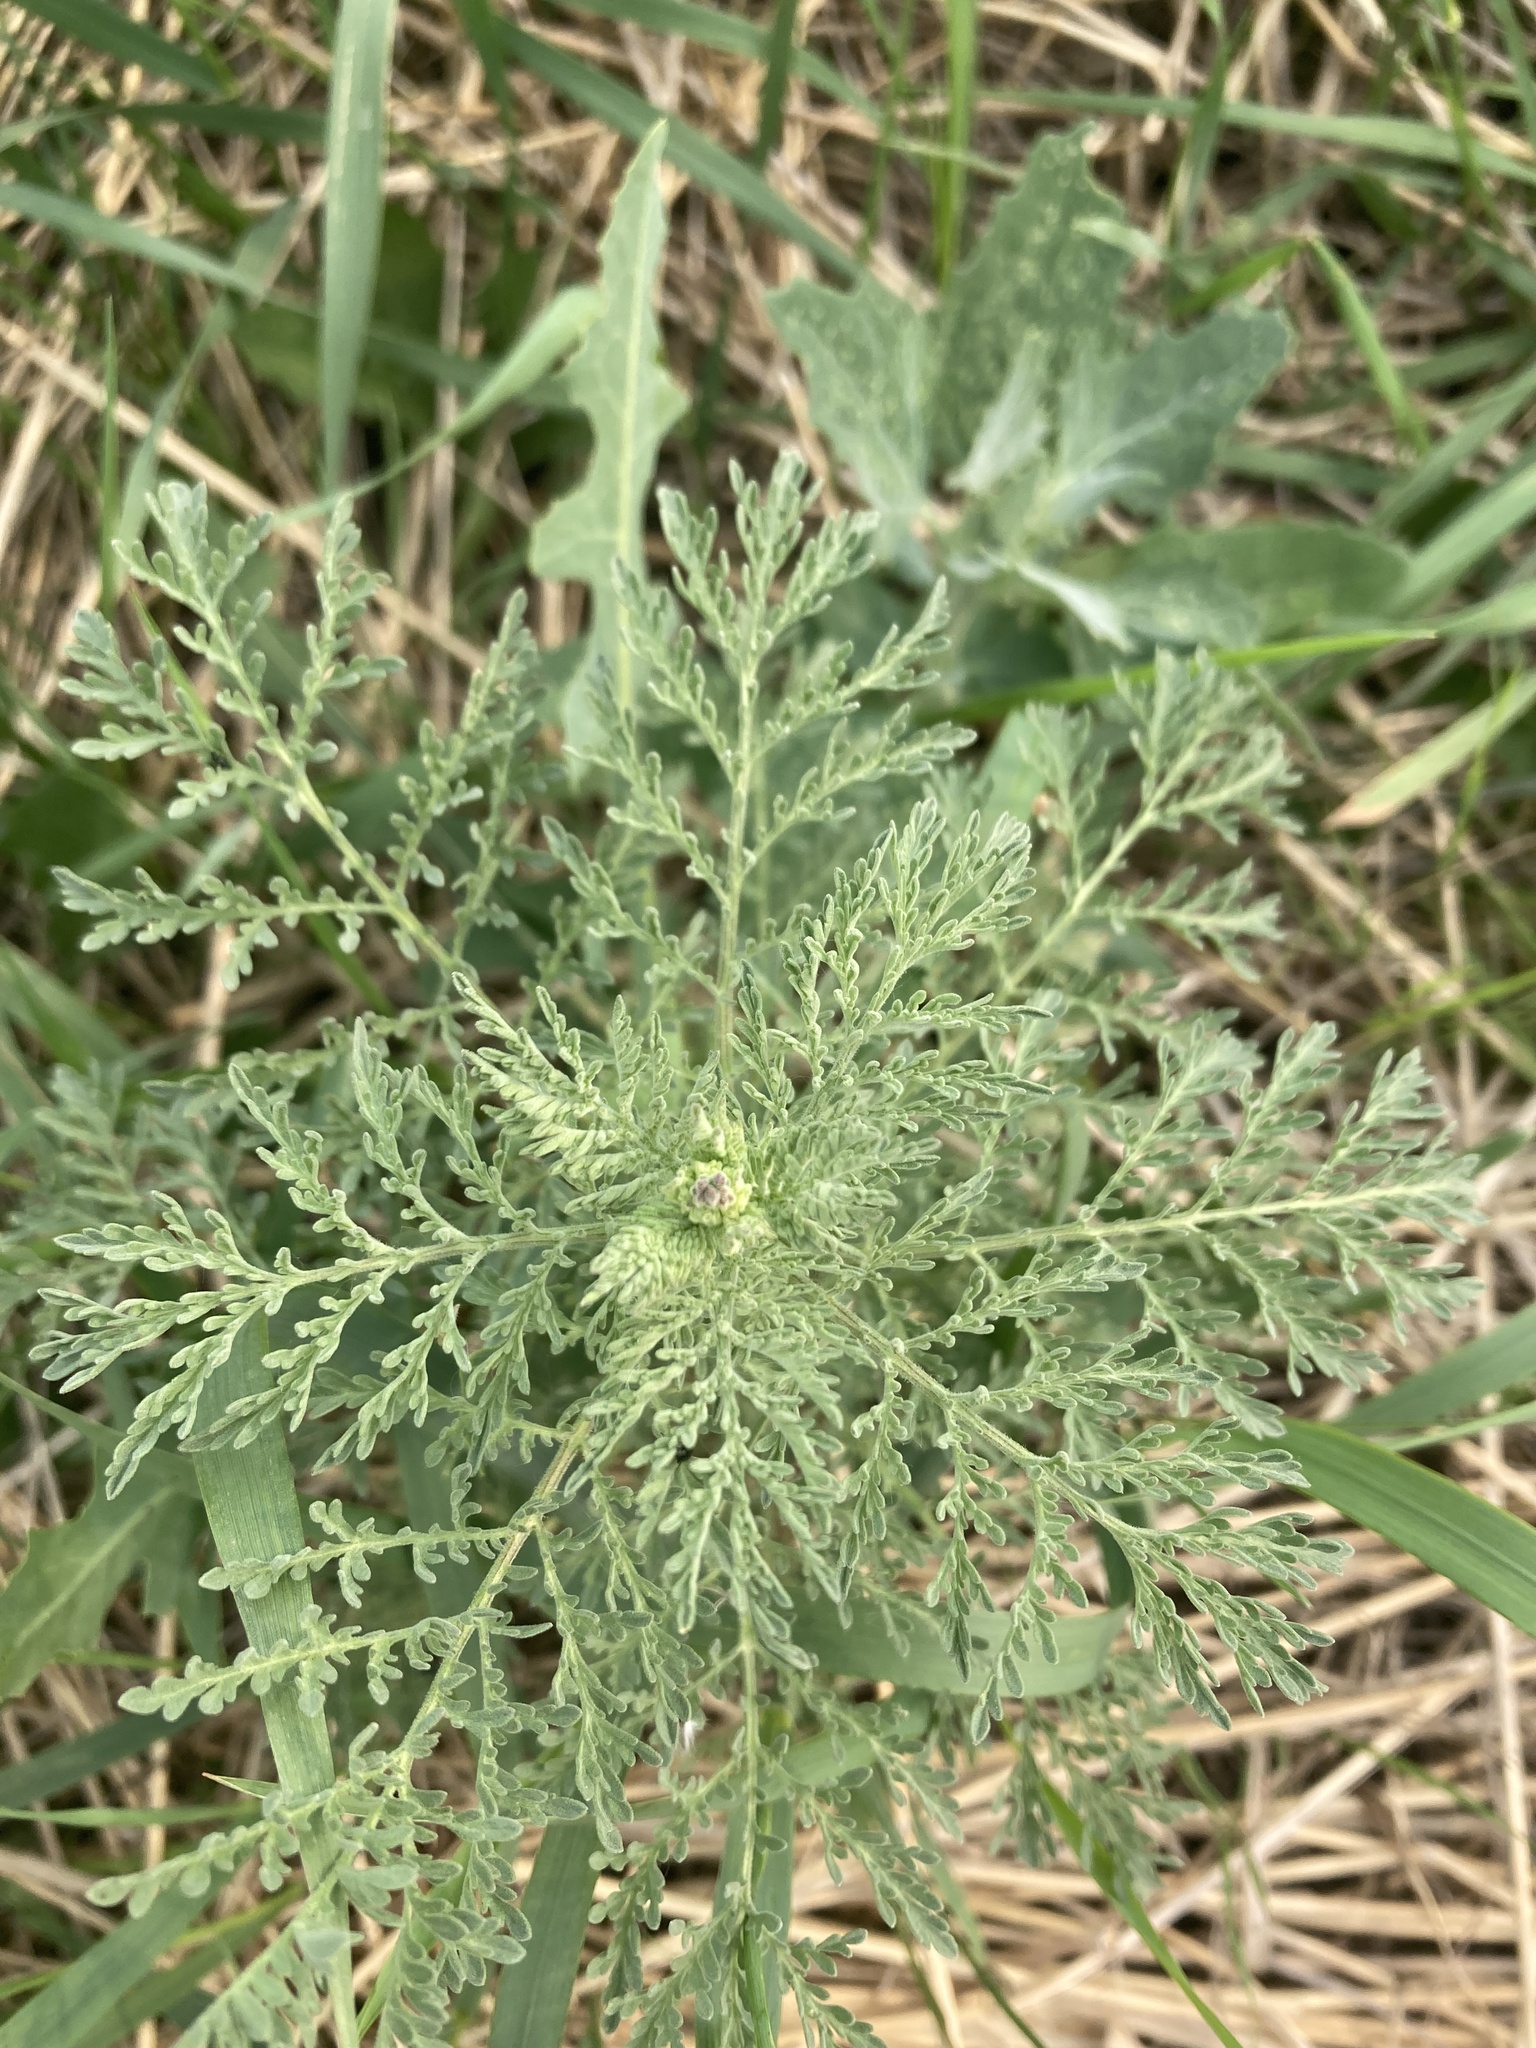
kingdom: Plantae
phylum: Tracheophyta
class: Magnoliopsida
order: Brassicales
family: Brassicaceae
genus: Descurainia
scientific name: Descurainia sophia
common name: Flixweed
